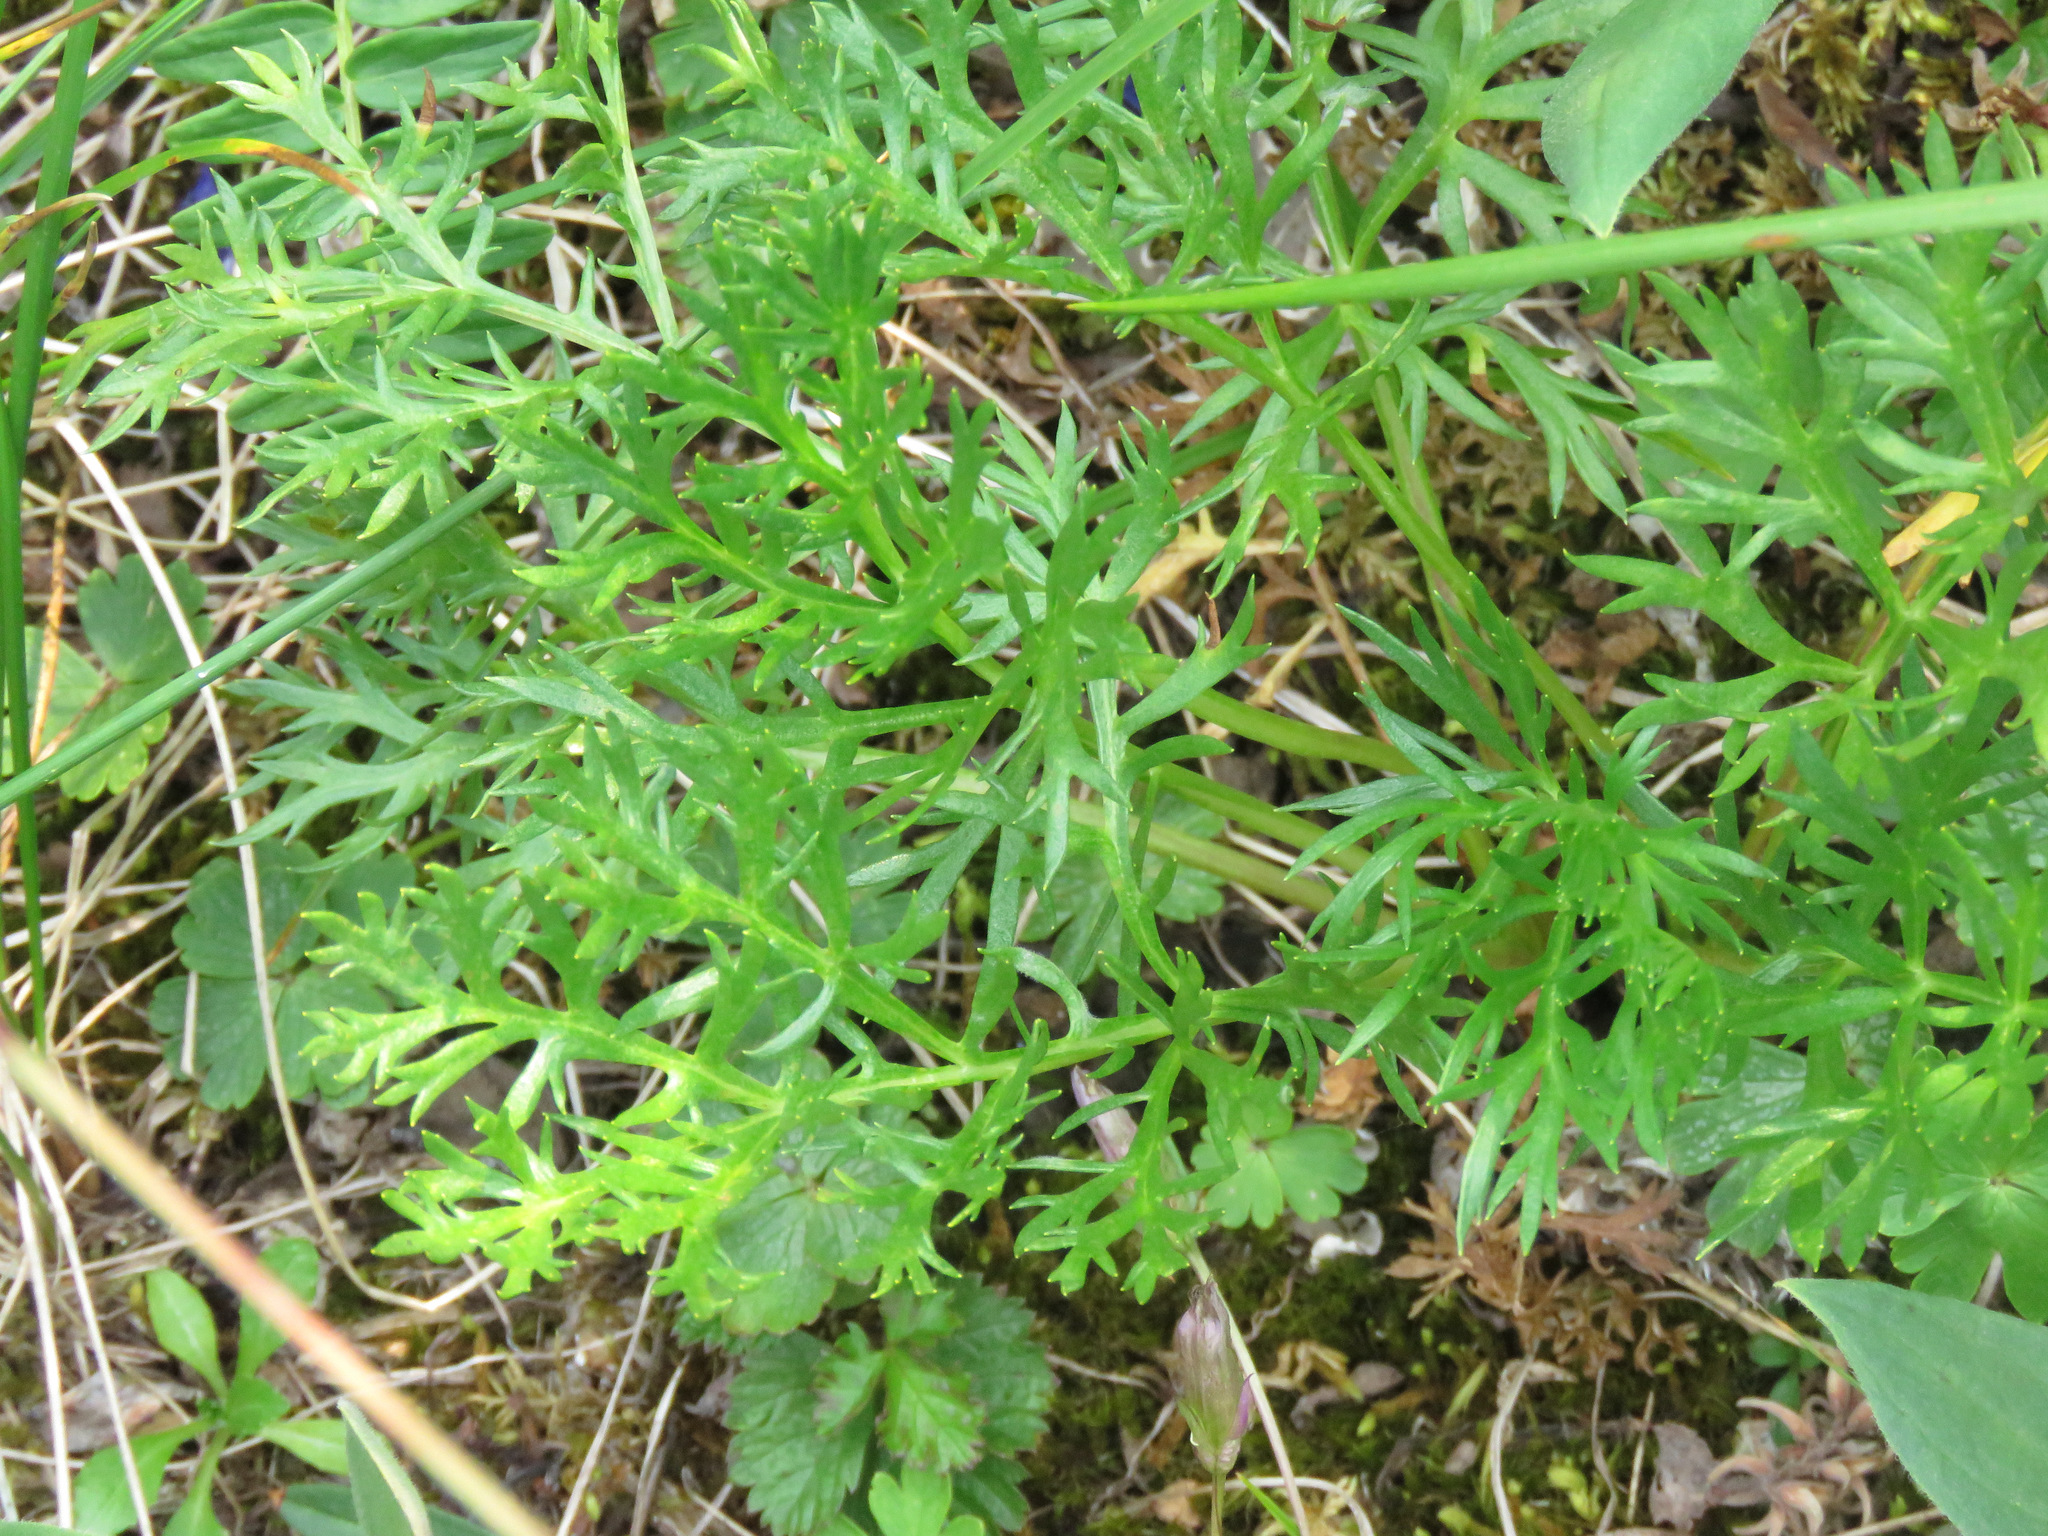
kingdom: Plantae
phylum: Tracheophyta
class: Magnoliopsida
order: Asterales
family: Asteraceae
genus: Artemisia
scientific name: Artemisia norvegica
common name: Norwegian mugwort
